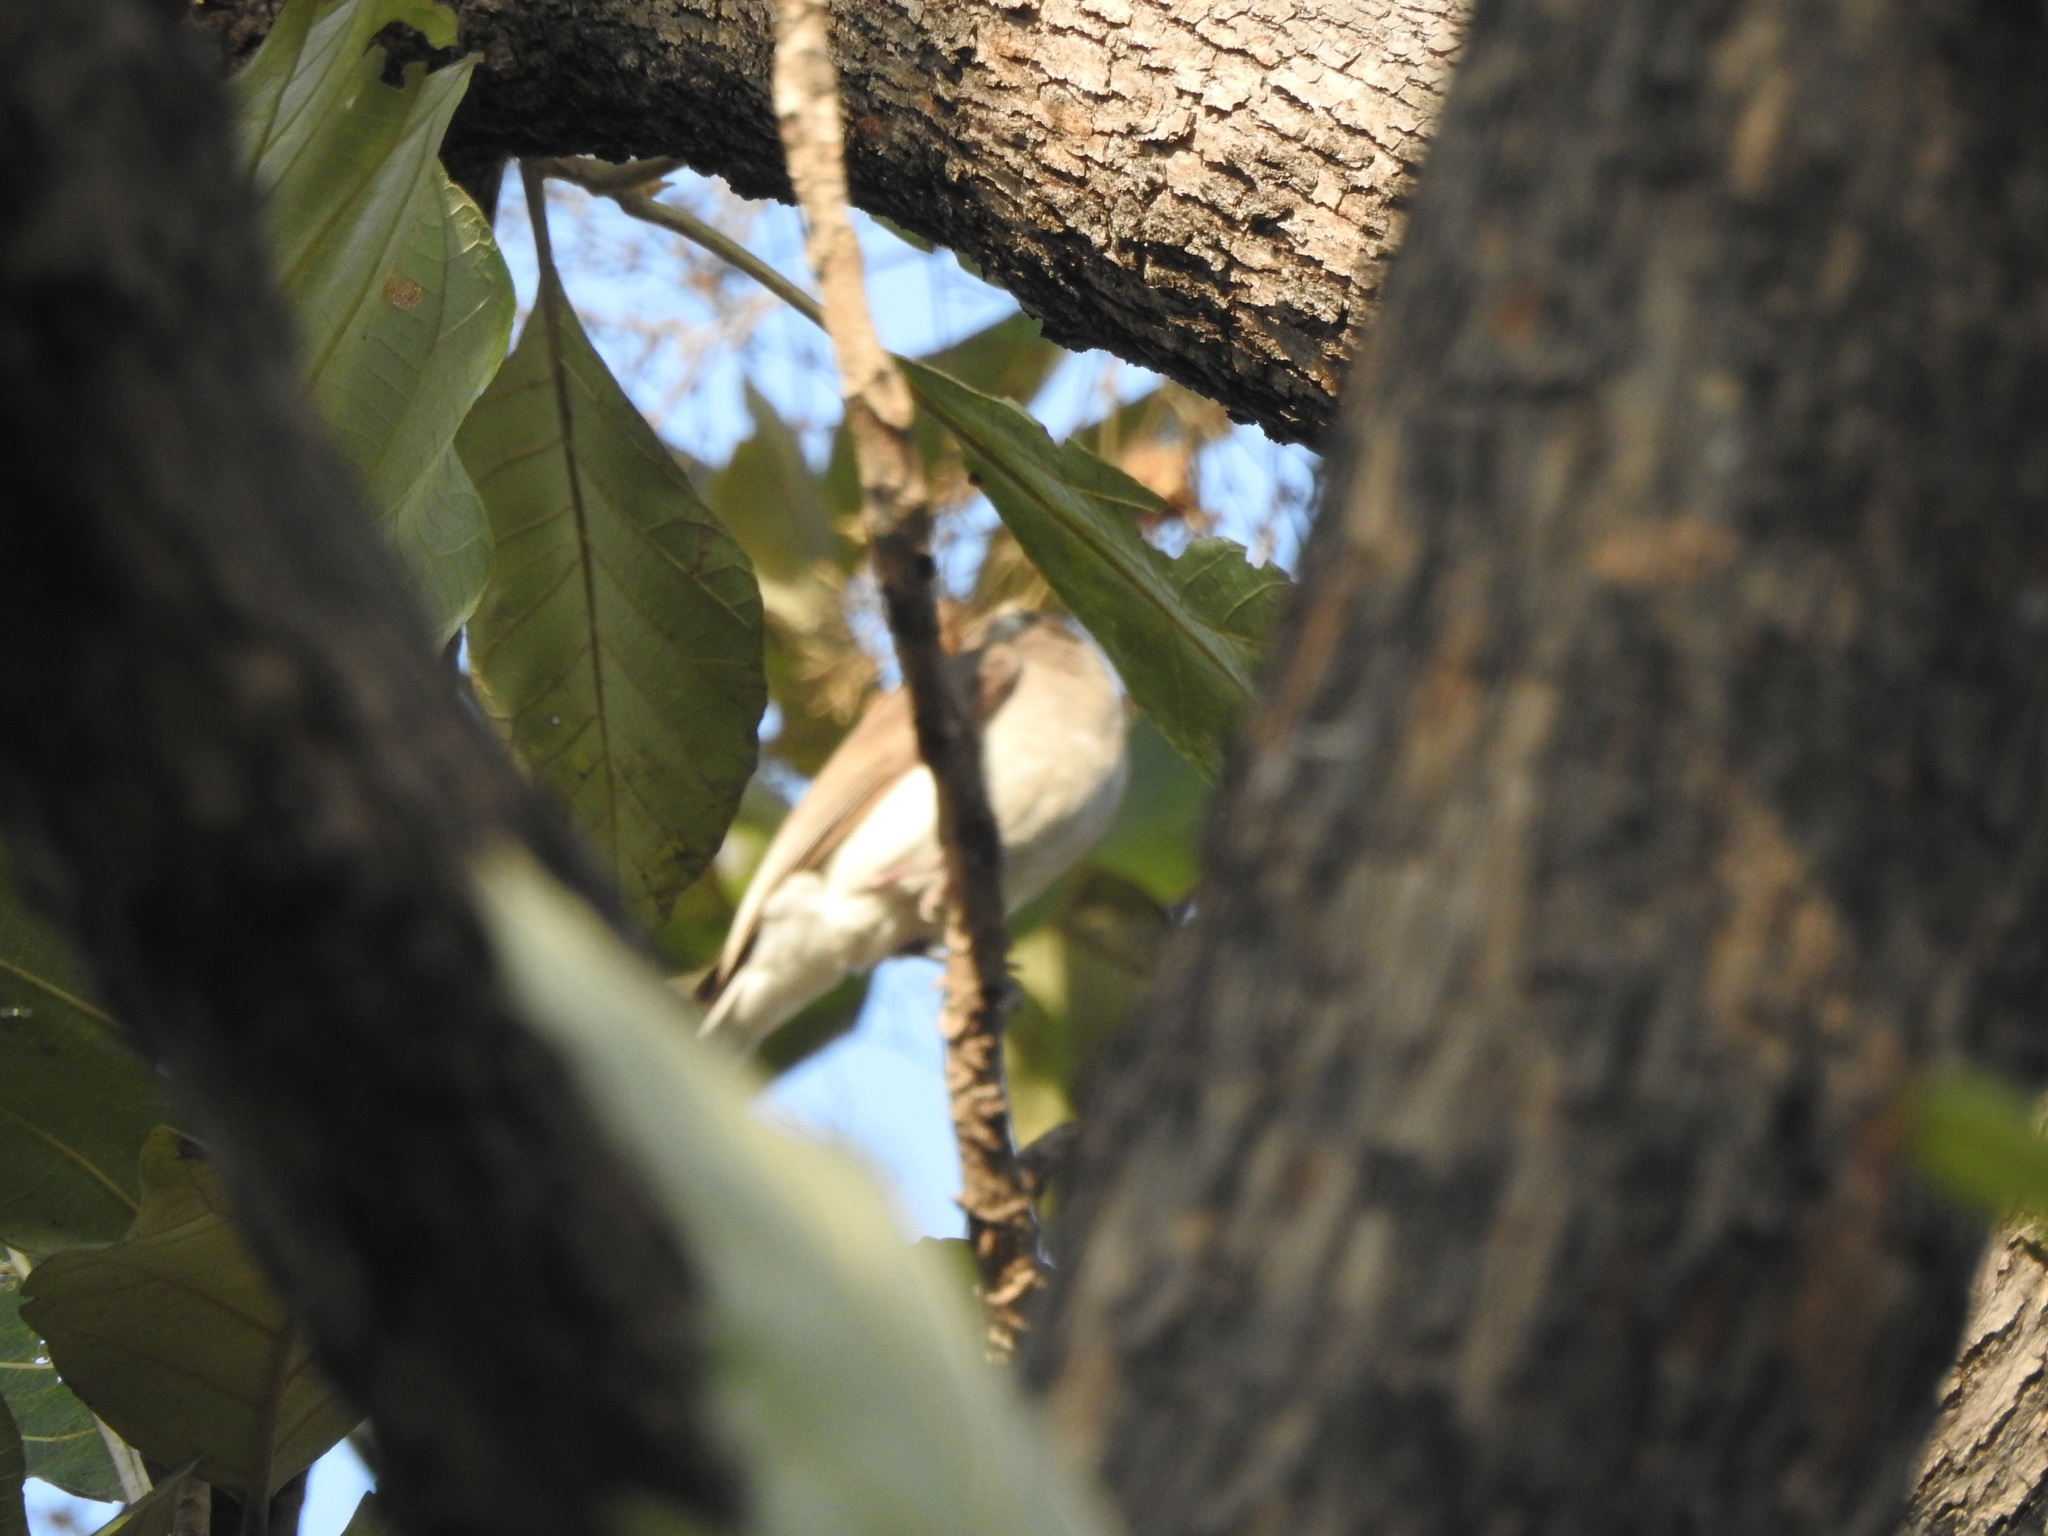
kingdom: Animalia
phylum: Chordata
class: Aves
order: Passeriformes
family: Tephrodornithidae
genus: Tephrodornis
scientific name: Tephrodornis pondicerianus
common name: Common woodshrike
